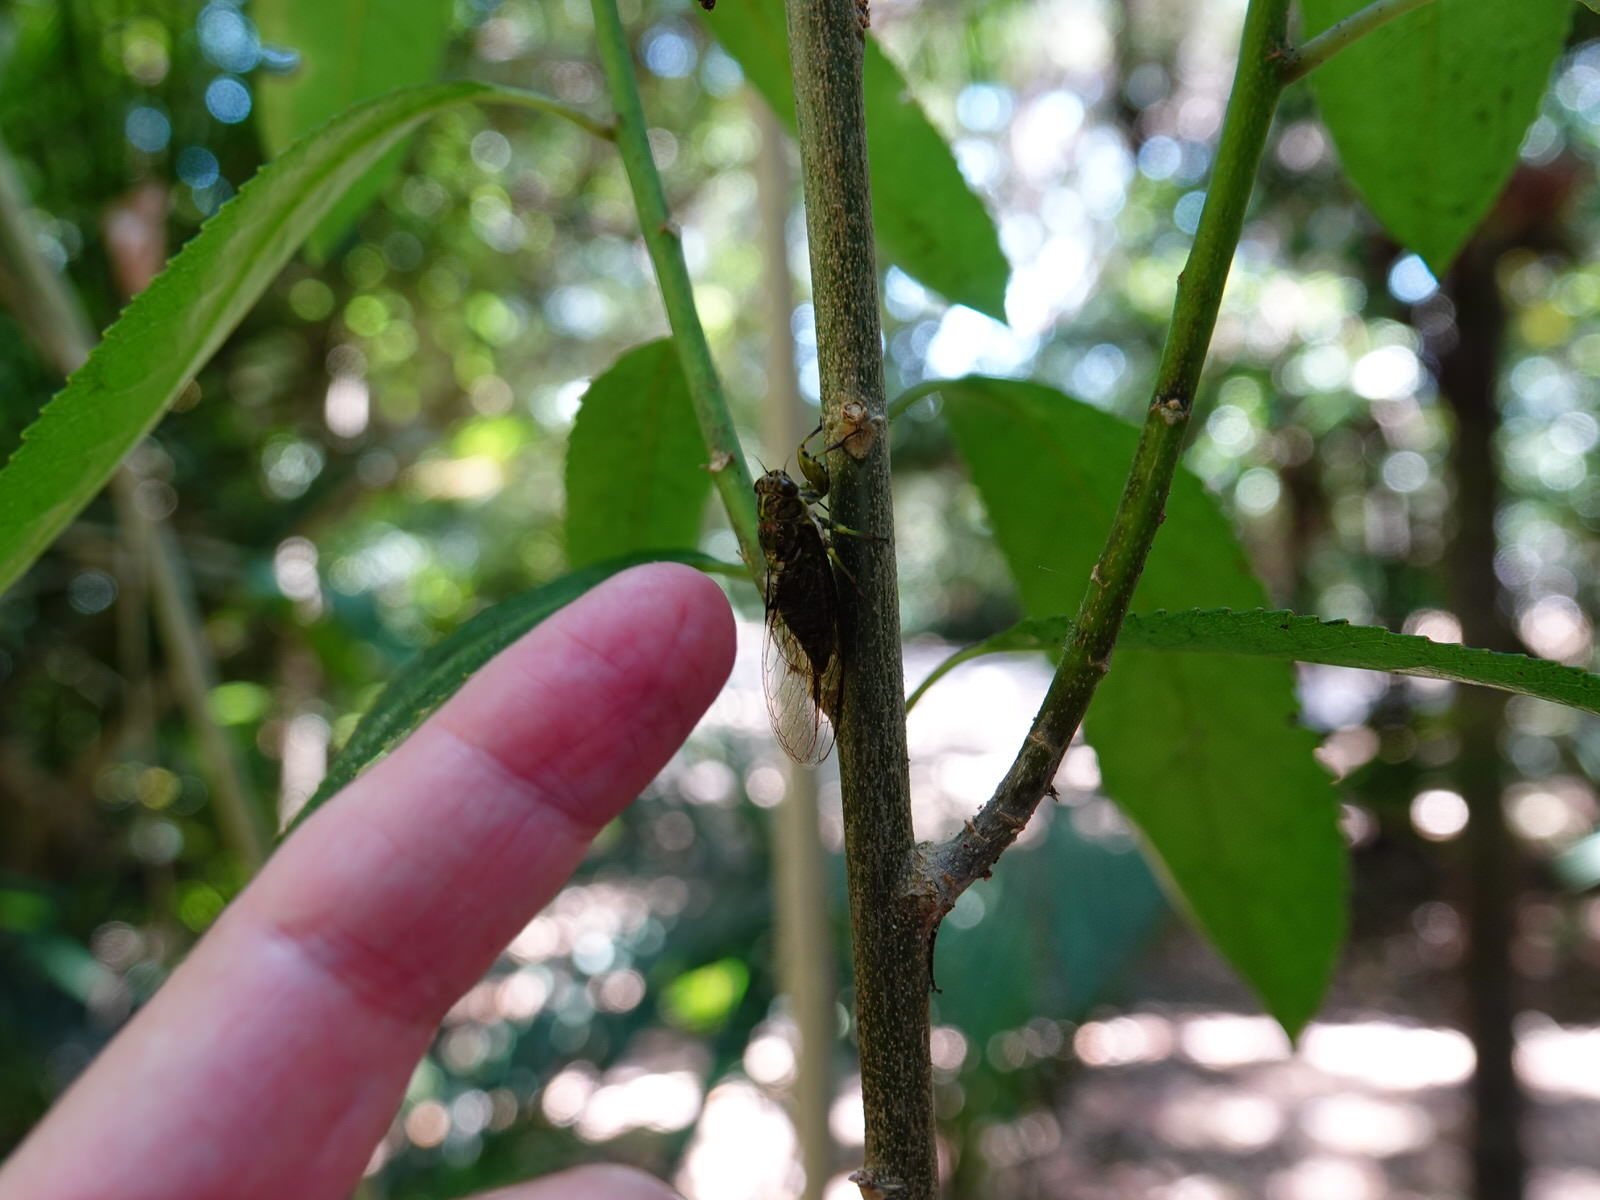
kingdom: Animalia
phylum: Arthropoda
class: Insecta
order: Hemiptera
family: Cicadidae
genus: Kikihia
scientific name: Kikihia scutellaris
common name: Lesser bronze cicada
